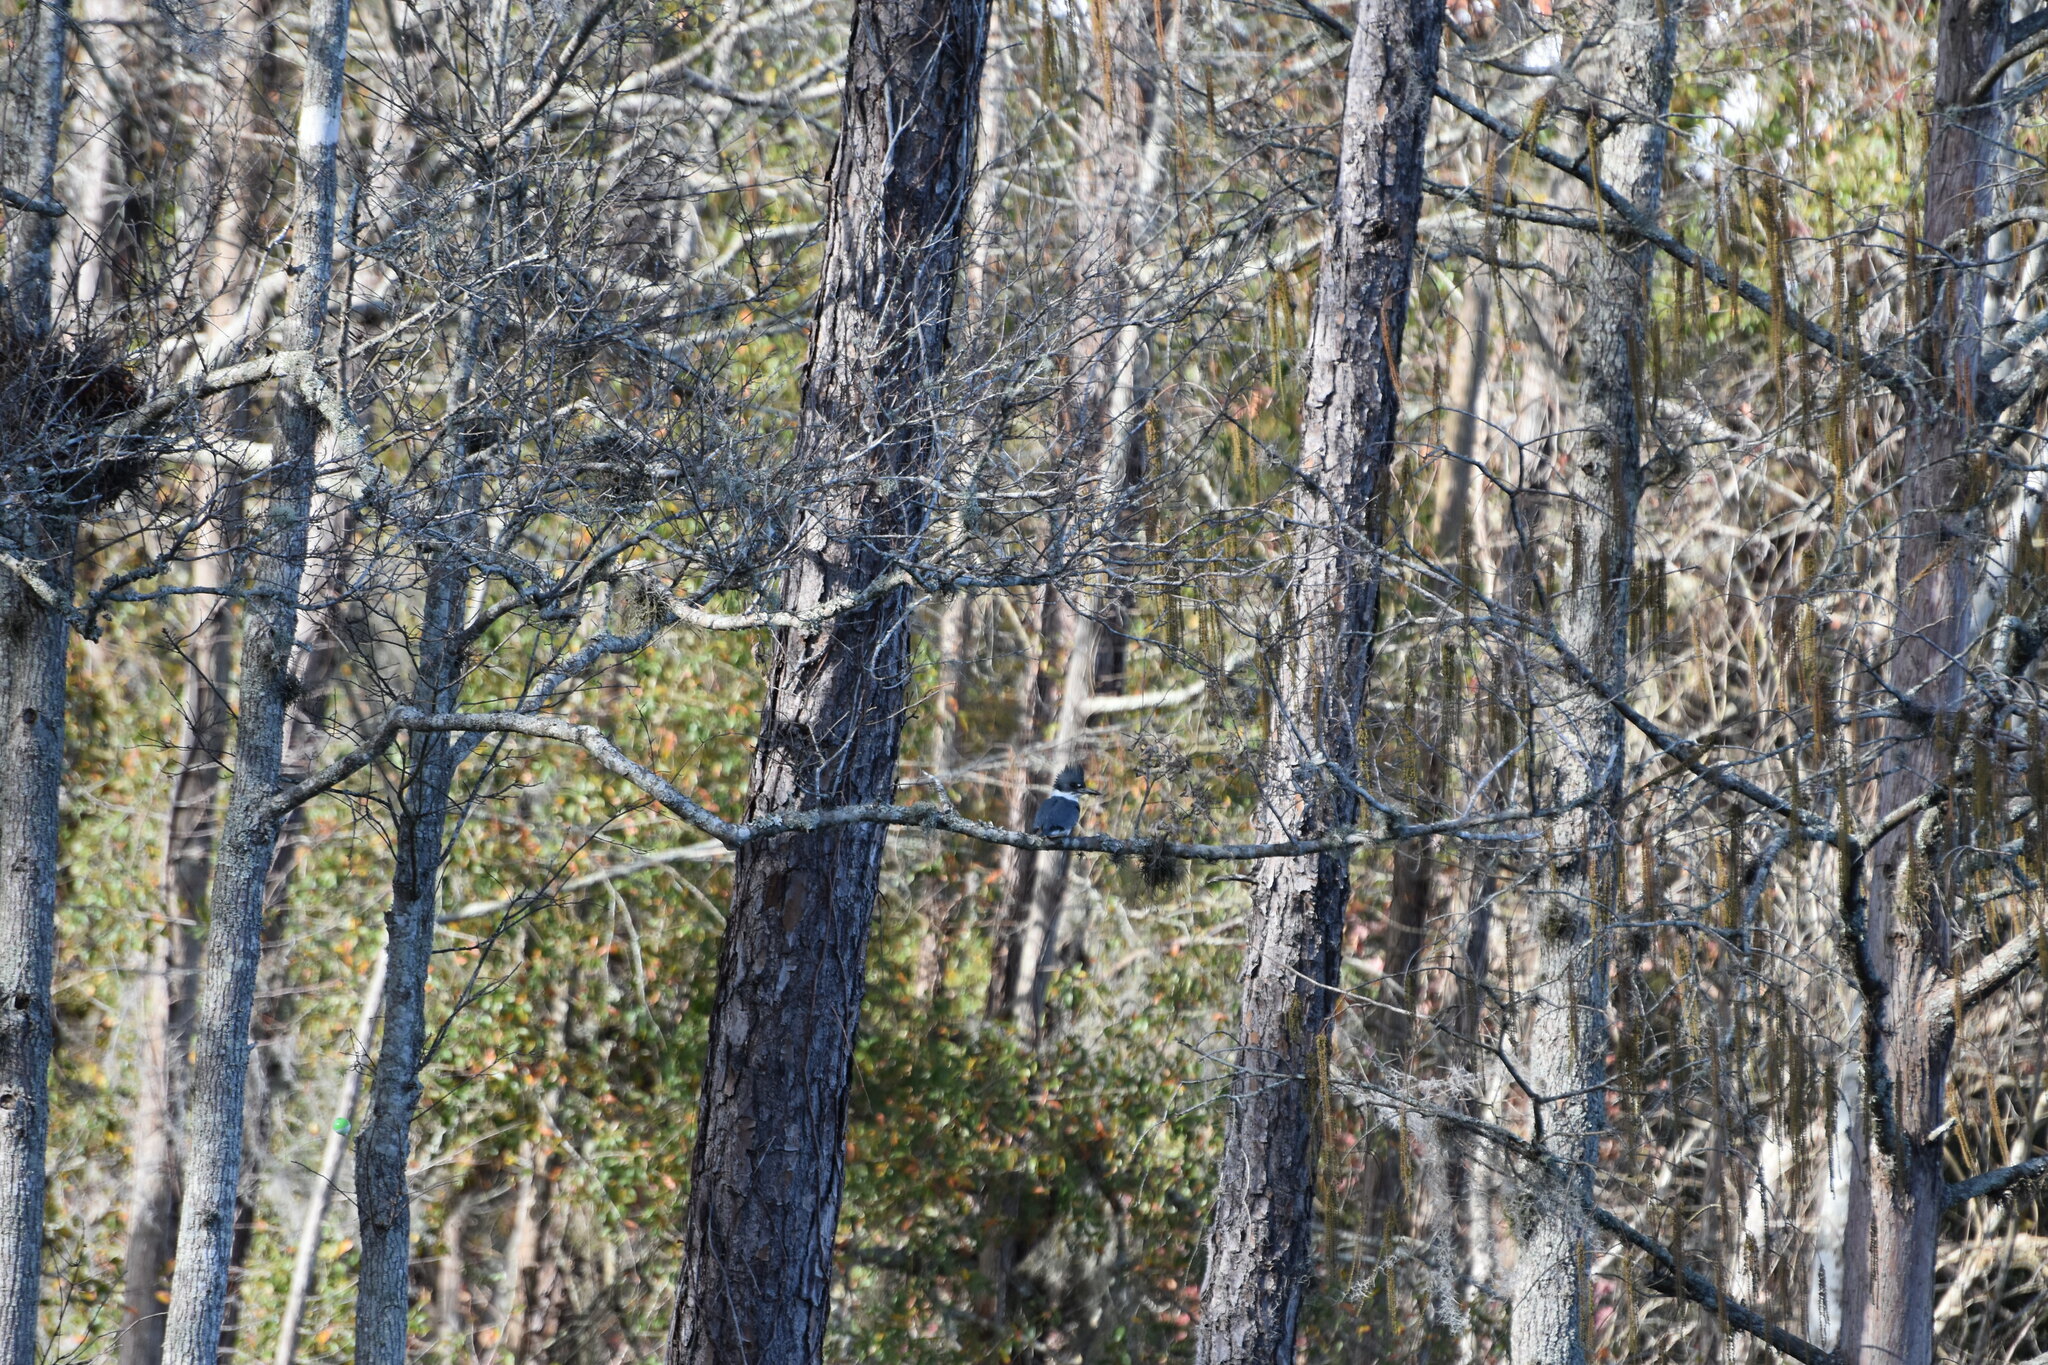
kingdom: Animalia
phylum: Chordata
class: Aves
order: Coraciiformes
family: Alcedinidae
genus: Megaceryle
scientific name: Megaceryle alcyon
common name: Belted kingfisher
